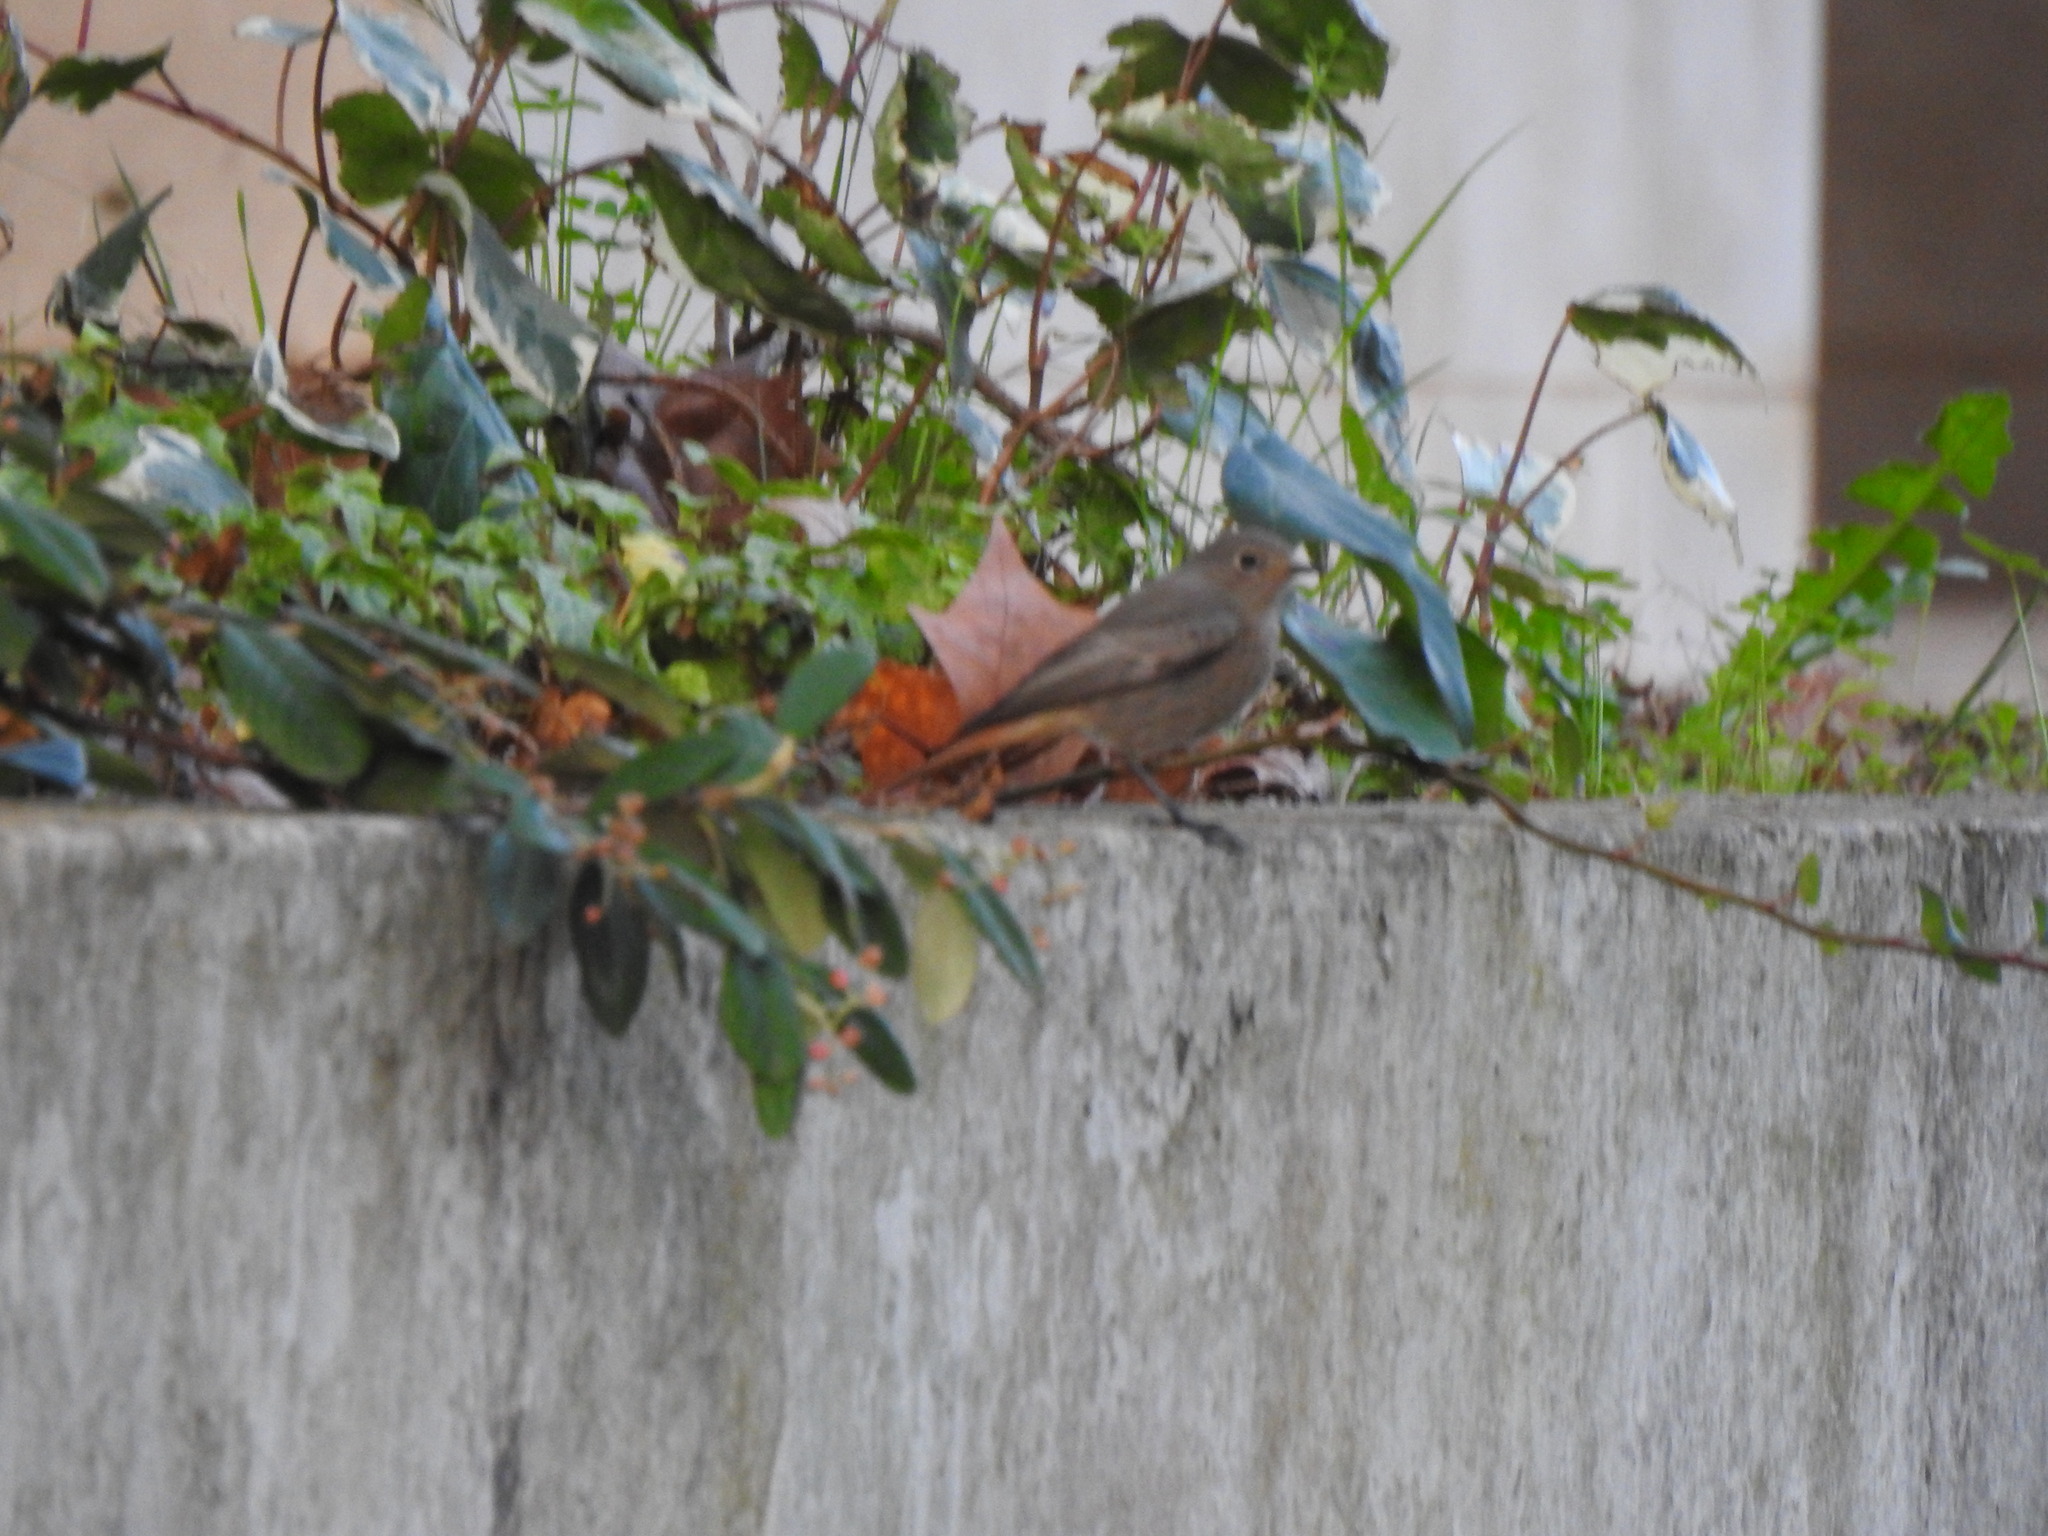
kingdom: Animalia
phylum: Chordata
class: Aves
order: Passeriformes
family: Muscicapidae
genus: Phoenicurus
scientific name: Phoenicurus ochruros
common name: Black redstart
